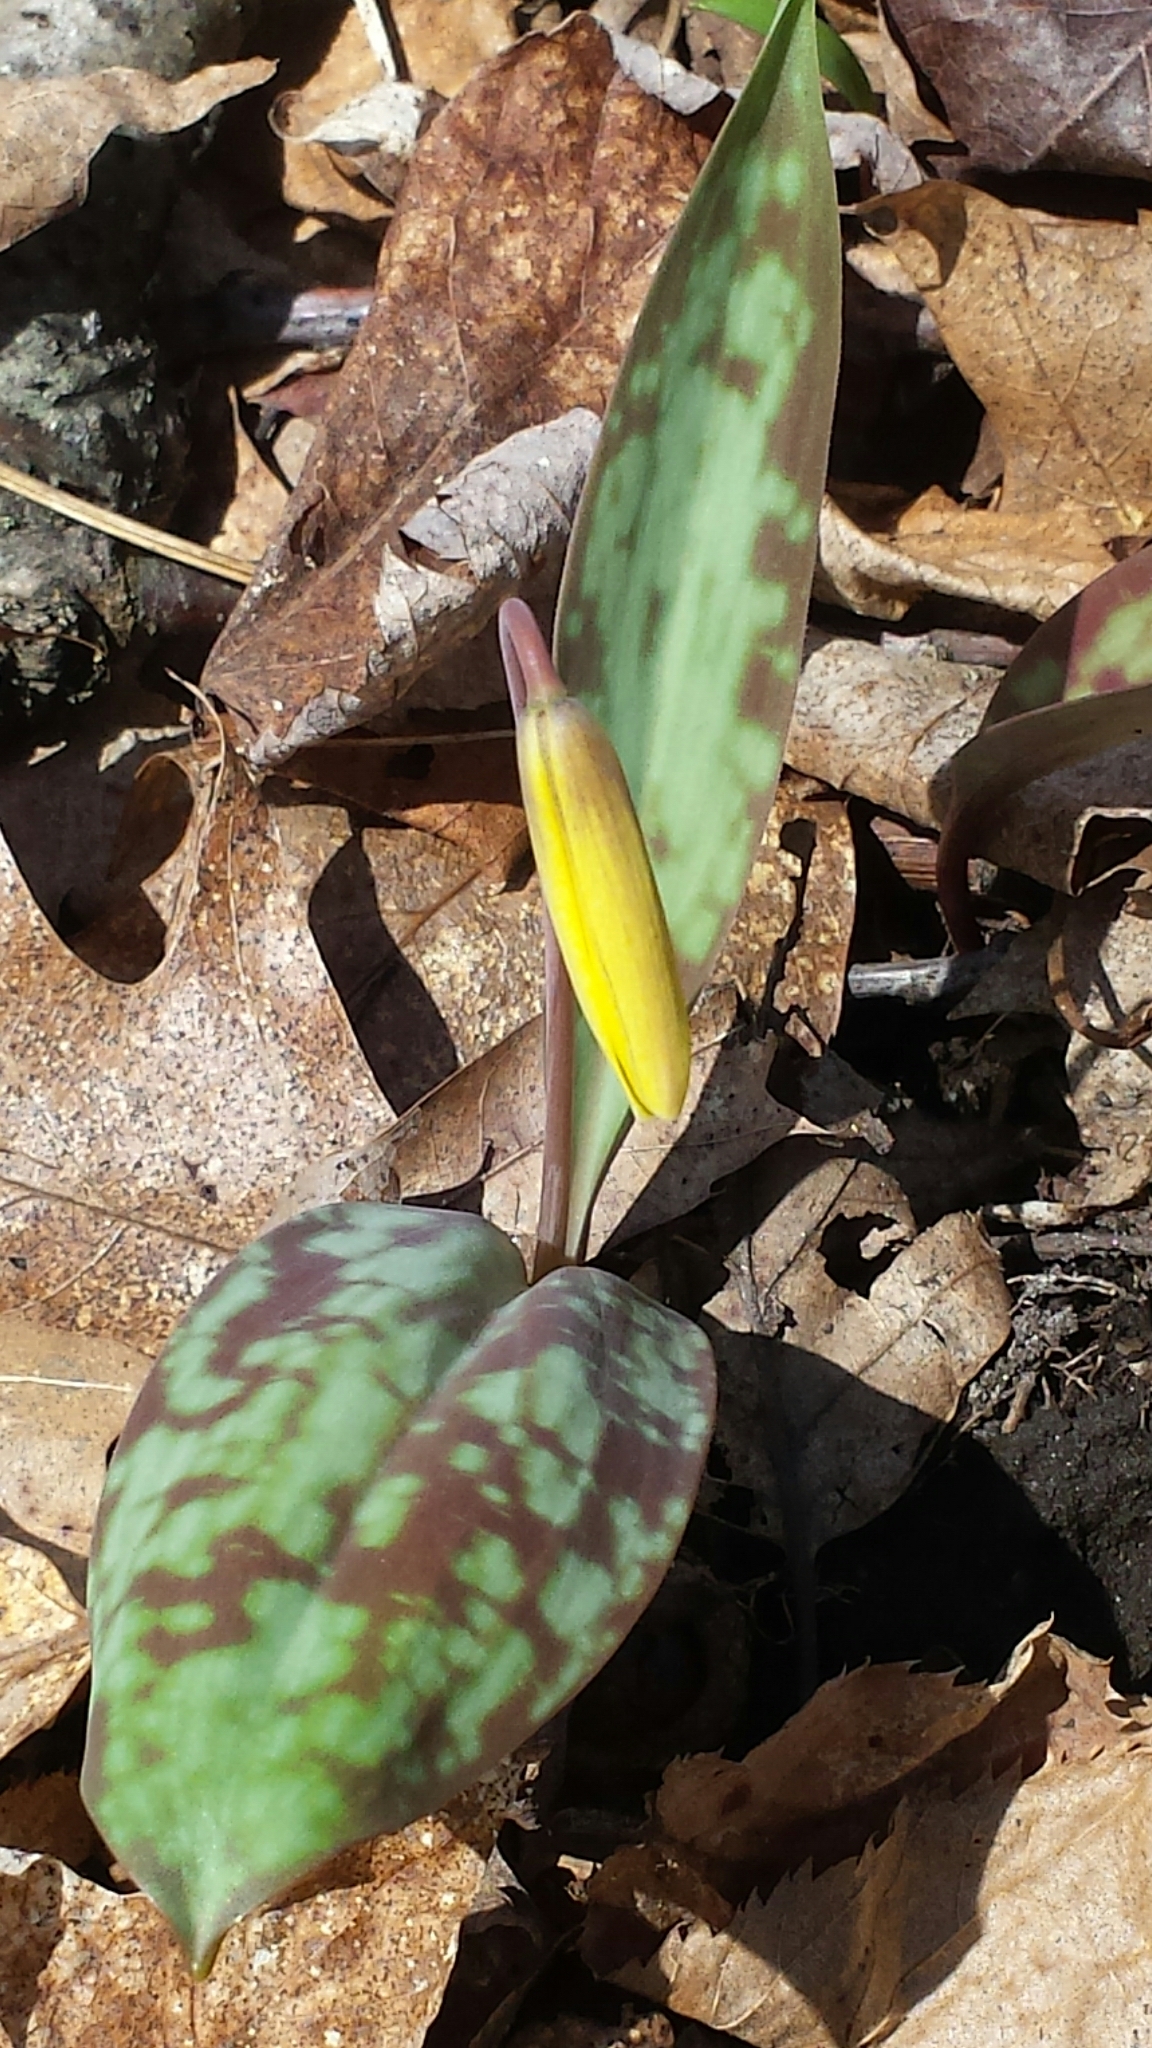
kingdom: Plantae
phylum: Tracheophyta
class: Liliopsida
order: Liliales
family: Liliaceae
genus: Erythronium
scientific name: Erythronium americanum
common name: Yellow adder's-tongue
